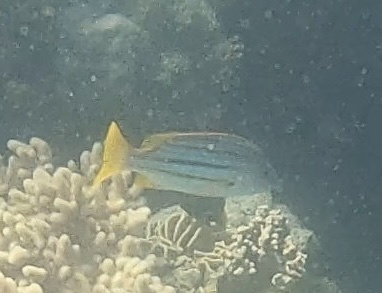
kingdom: Animalia
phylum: Chordata
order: Perciformes
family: Lutjanidae
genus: Lutjanus
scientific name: Lutjanus carponotatus
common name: Spanish flag
